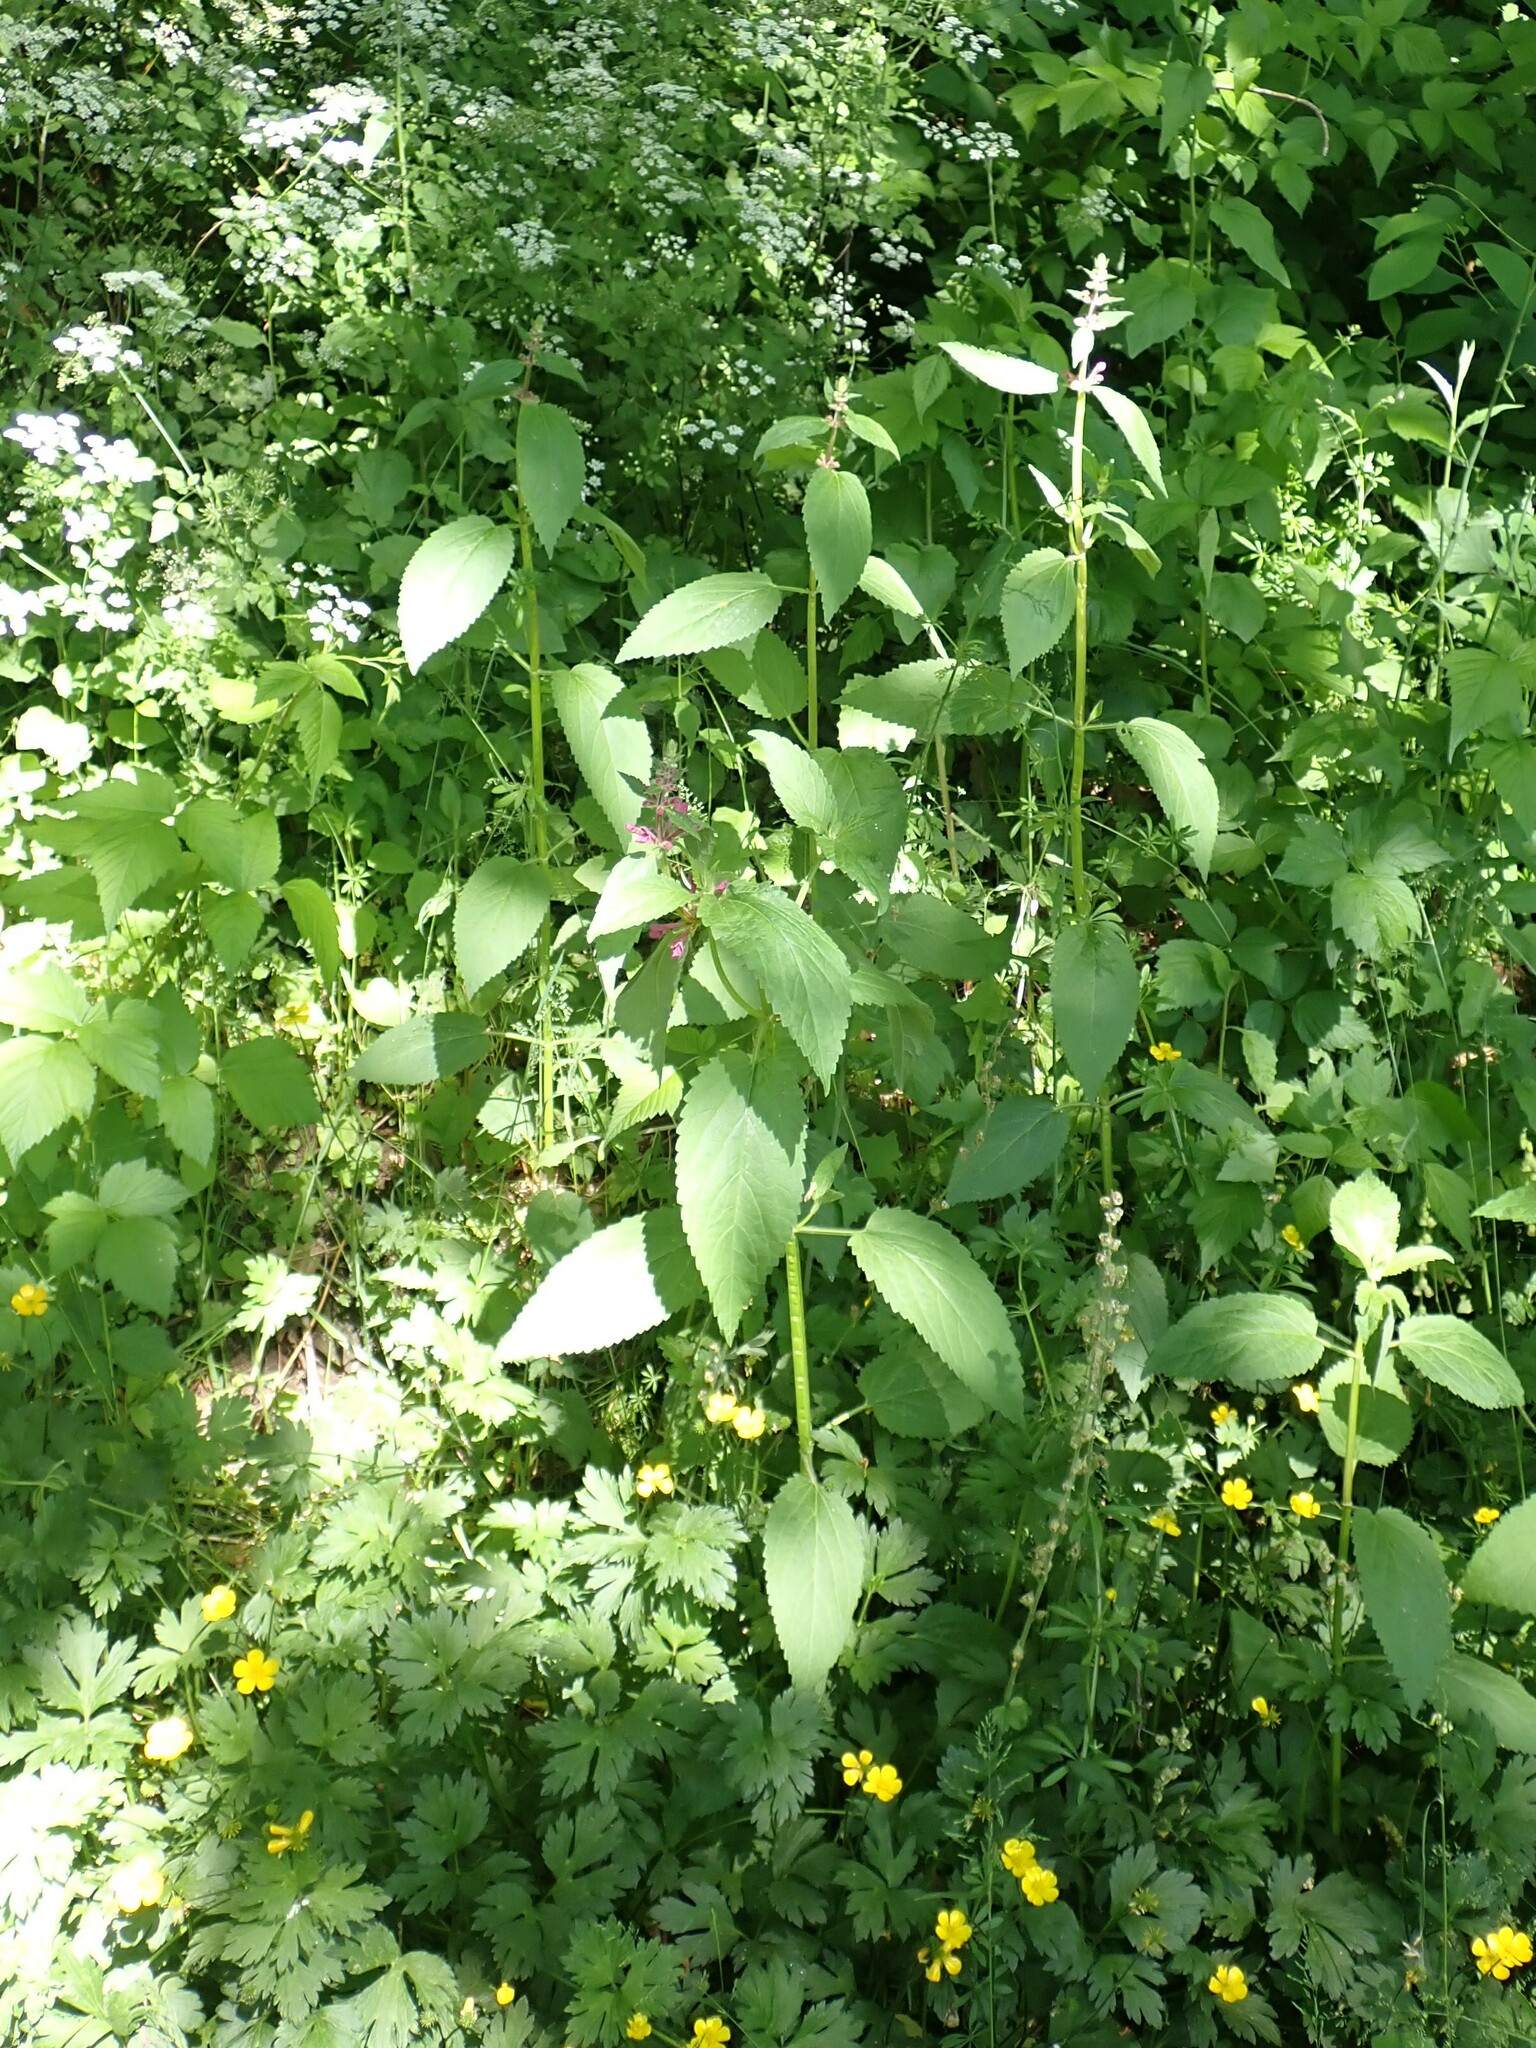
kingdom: Plantae
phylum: Tracheophyta
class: Magnoliopsida
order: Lamiales
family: Lamiaceae
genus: Stachys
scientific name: Stachys chamissonis
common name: Coastal hedge-nettle
